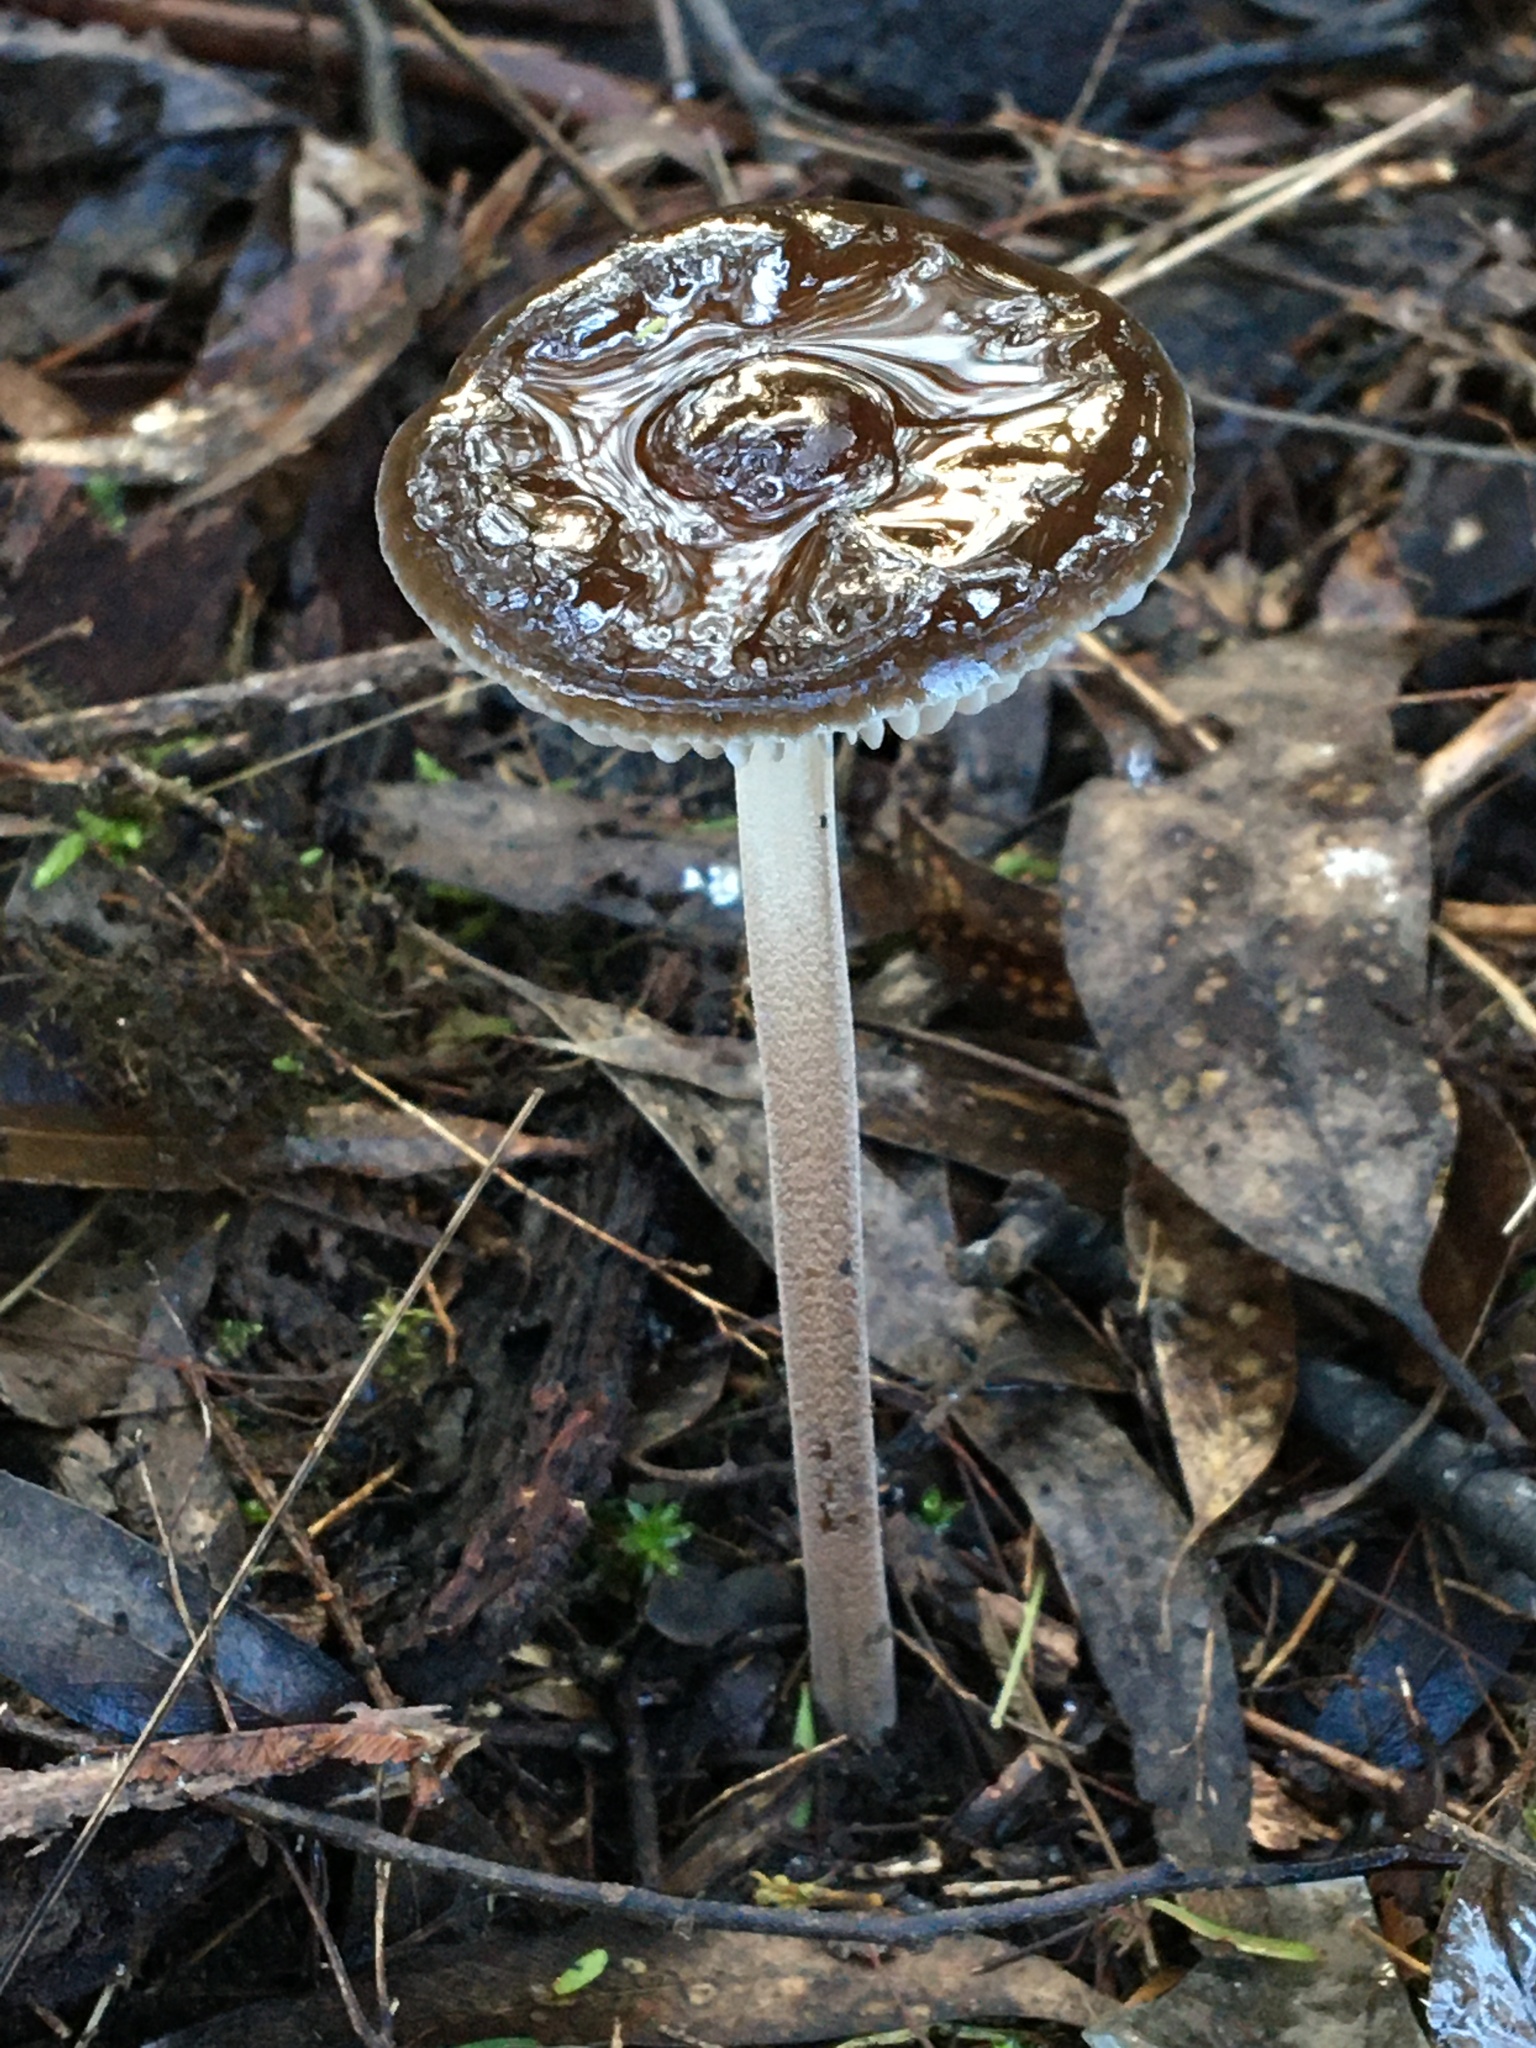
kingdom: Fungi
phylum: Basidiomycota
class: Agaricomycetes
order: Agaricales
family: Physalacriaceae
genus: Hymenopellis
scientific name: Hymenopellis gigaspora
